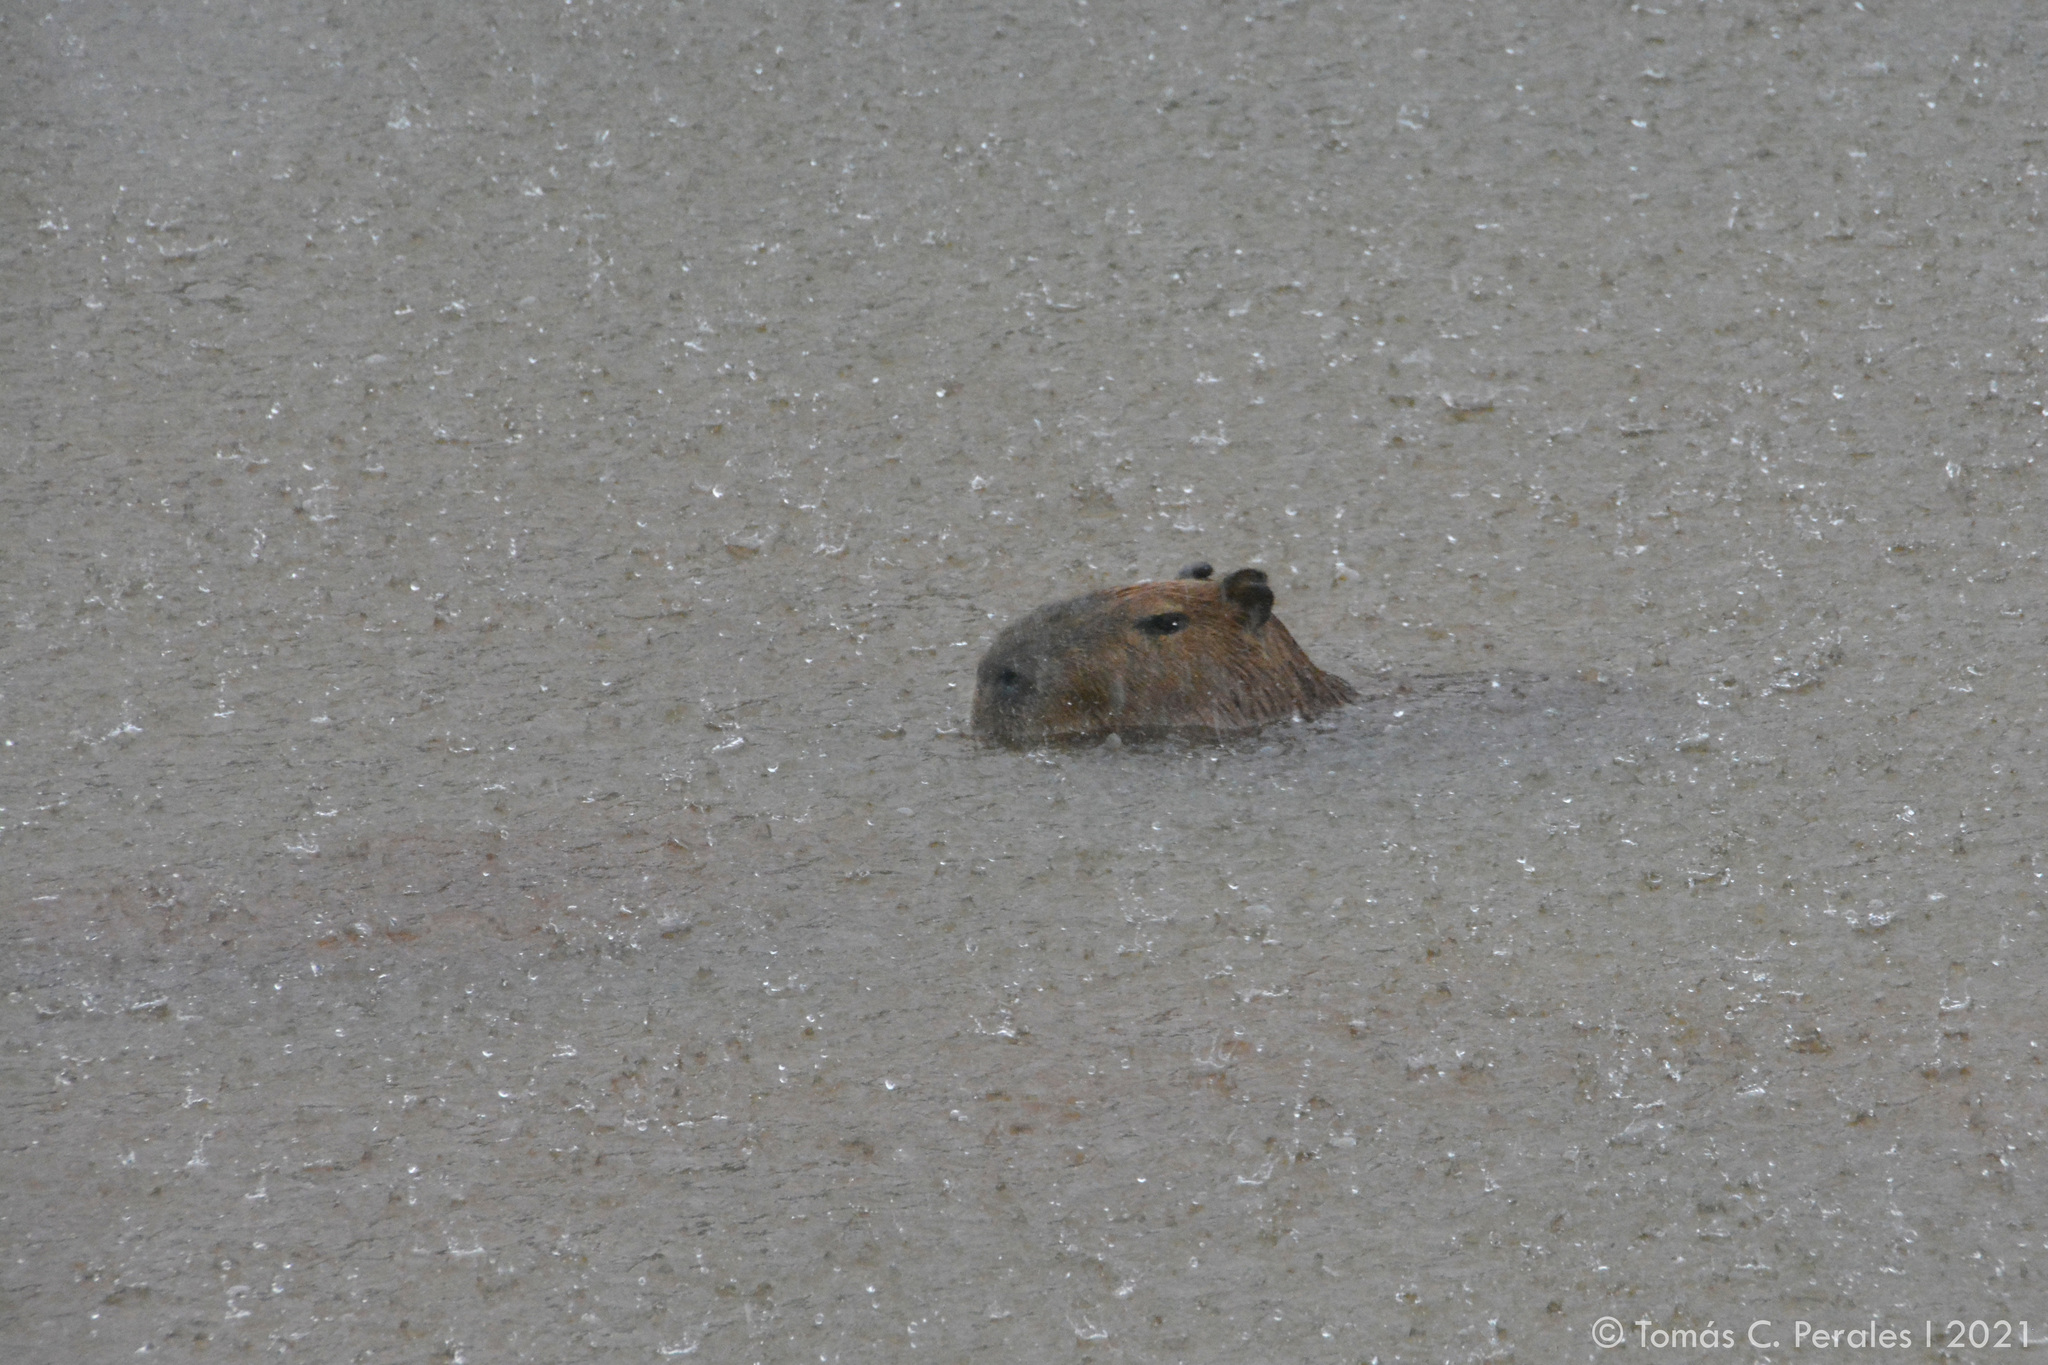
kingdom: Animalia
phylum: Chordata
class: Mammalia
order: Rodentia
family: Caviidae
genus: Hydrochoerus
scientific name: Hydrochoerus hydrochaeris
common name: Capybara
